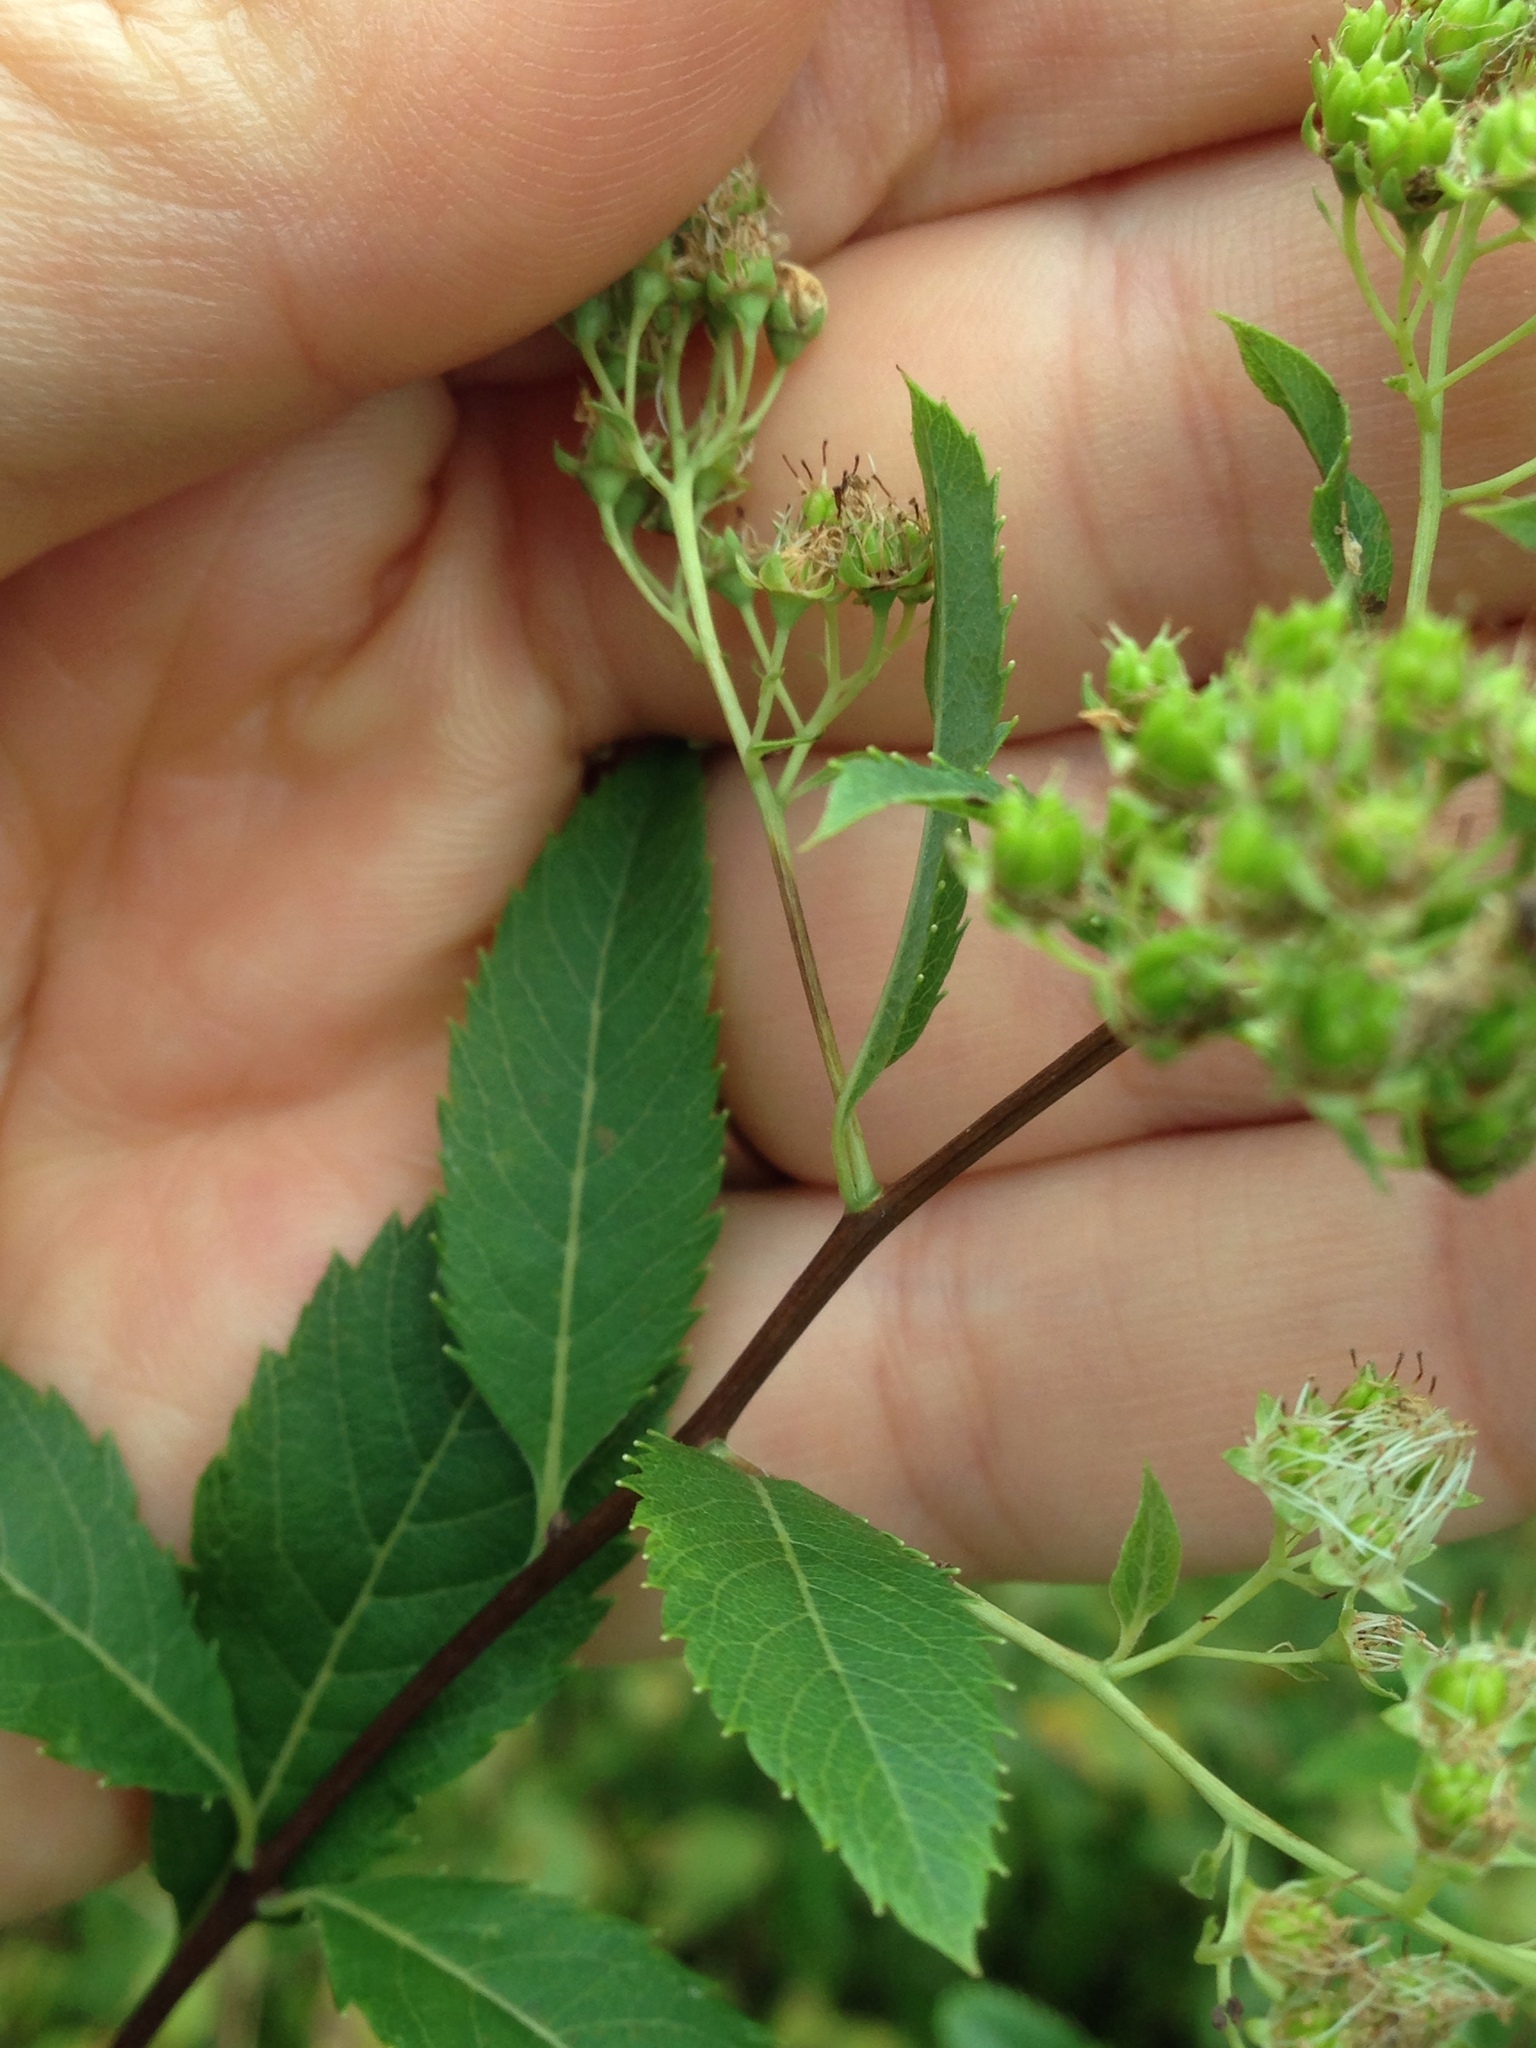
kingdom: Plantae
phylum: Tracheophyta
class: Magnoliopsida
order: Rosales
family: Rosaceae
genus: Spiraea
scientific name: Spiraea alba
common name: Pale bridewort
